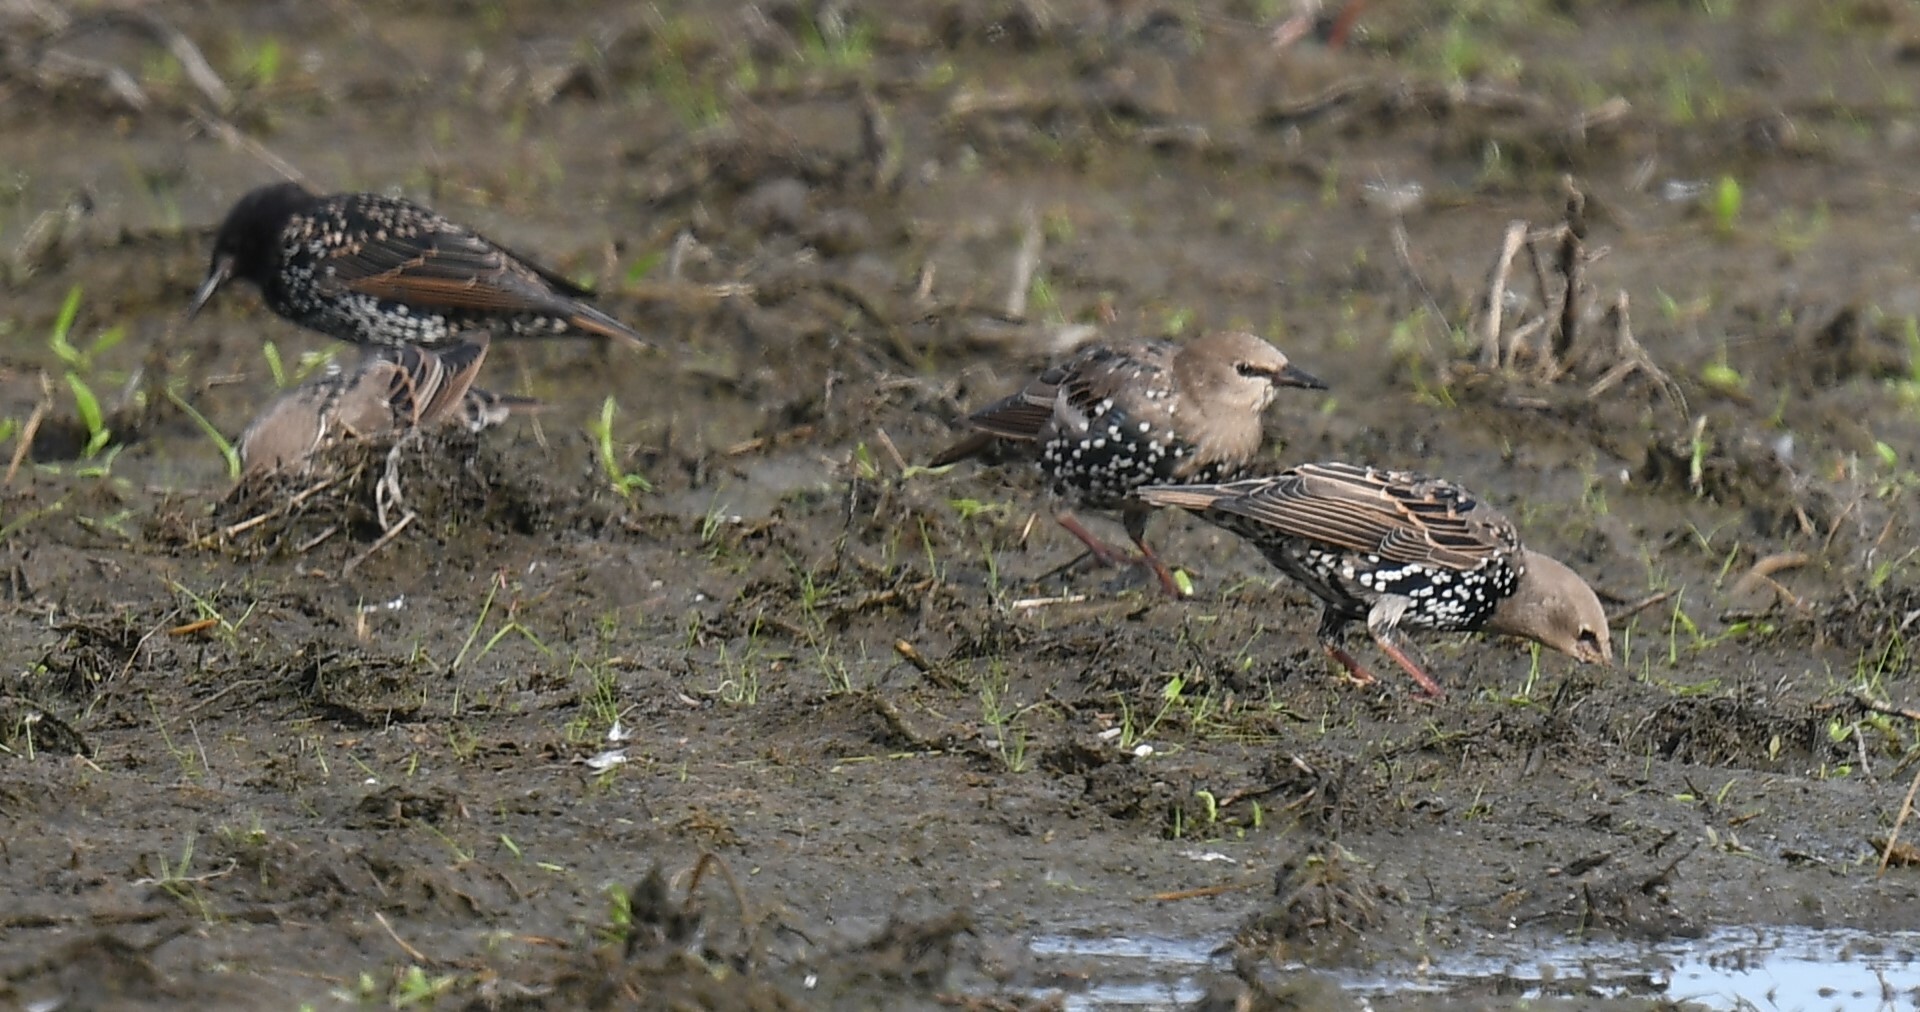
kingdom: Animalia
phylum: Chordata
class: Aves
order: Passeriformes
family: Sturnidae
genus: Sturnus
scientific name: Sturnus vulgaris
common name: Common starling
